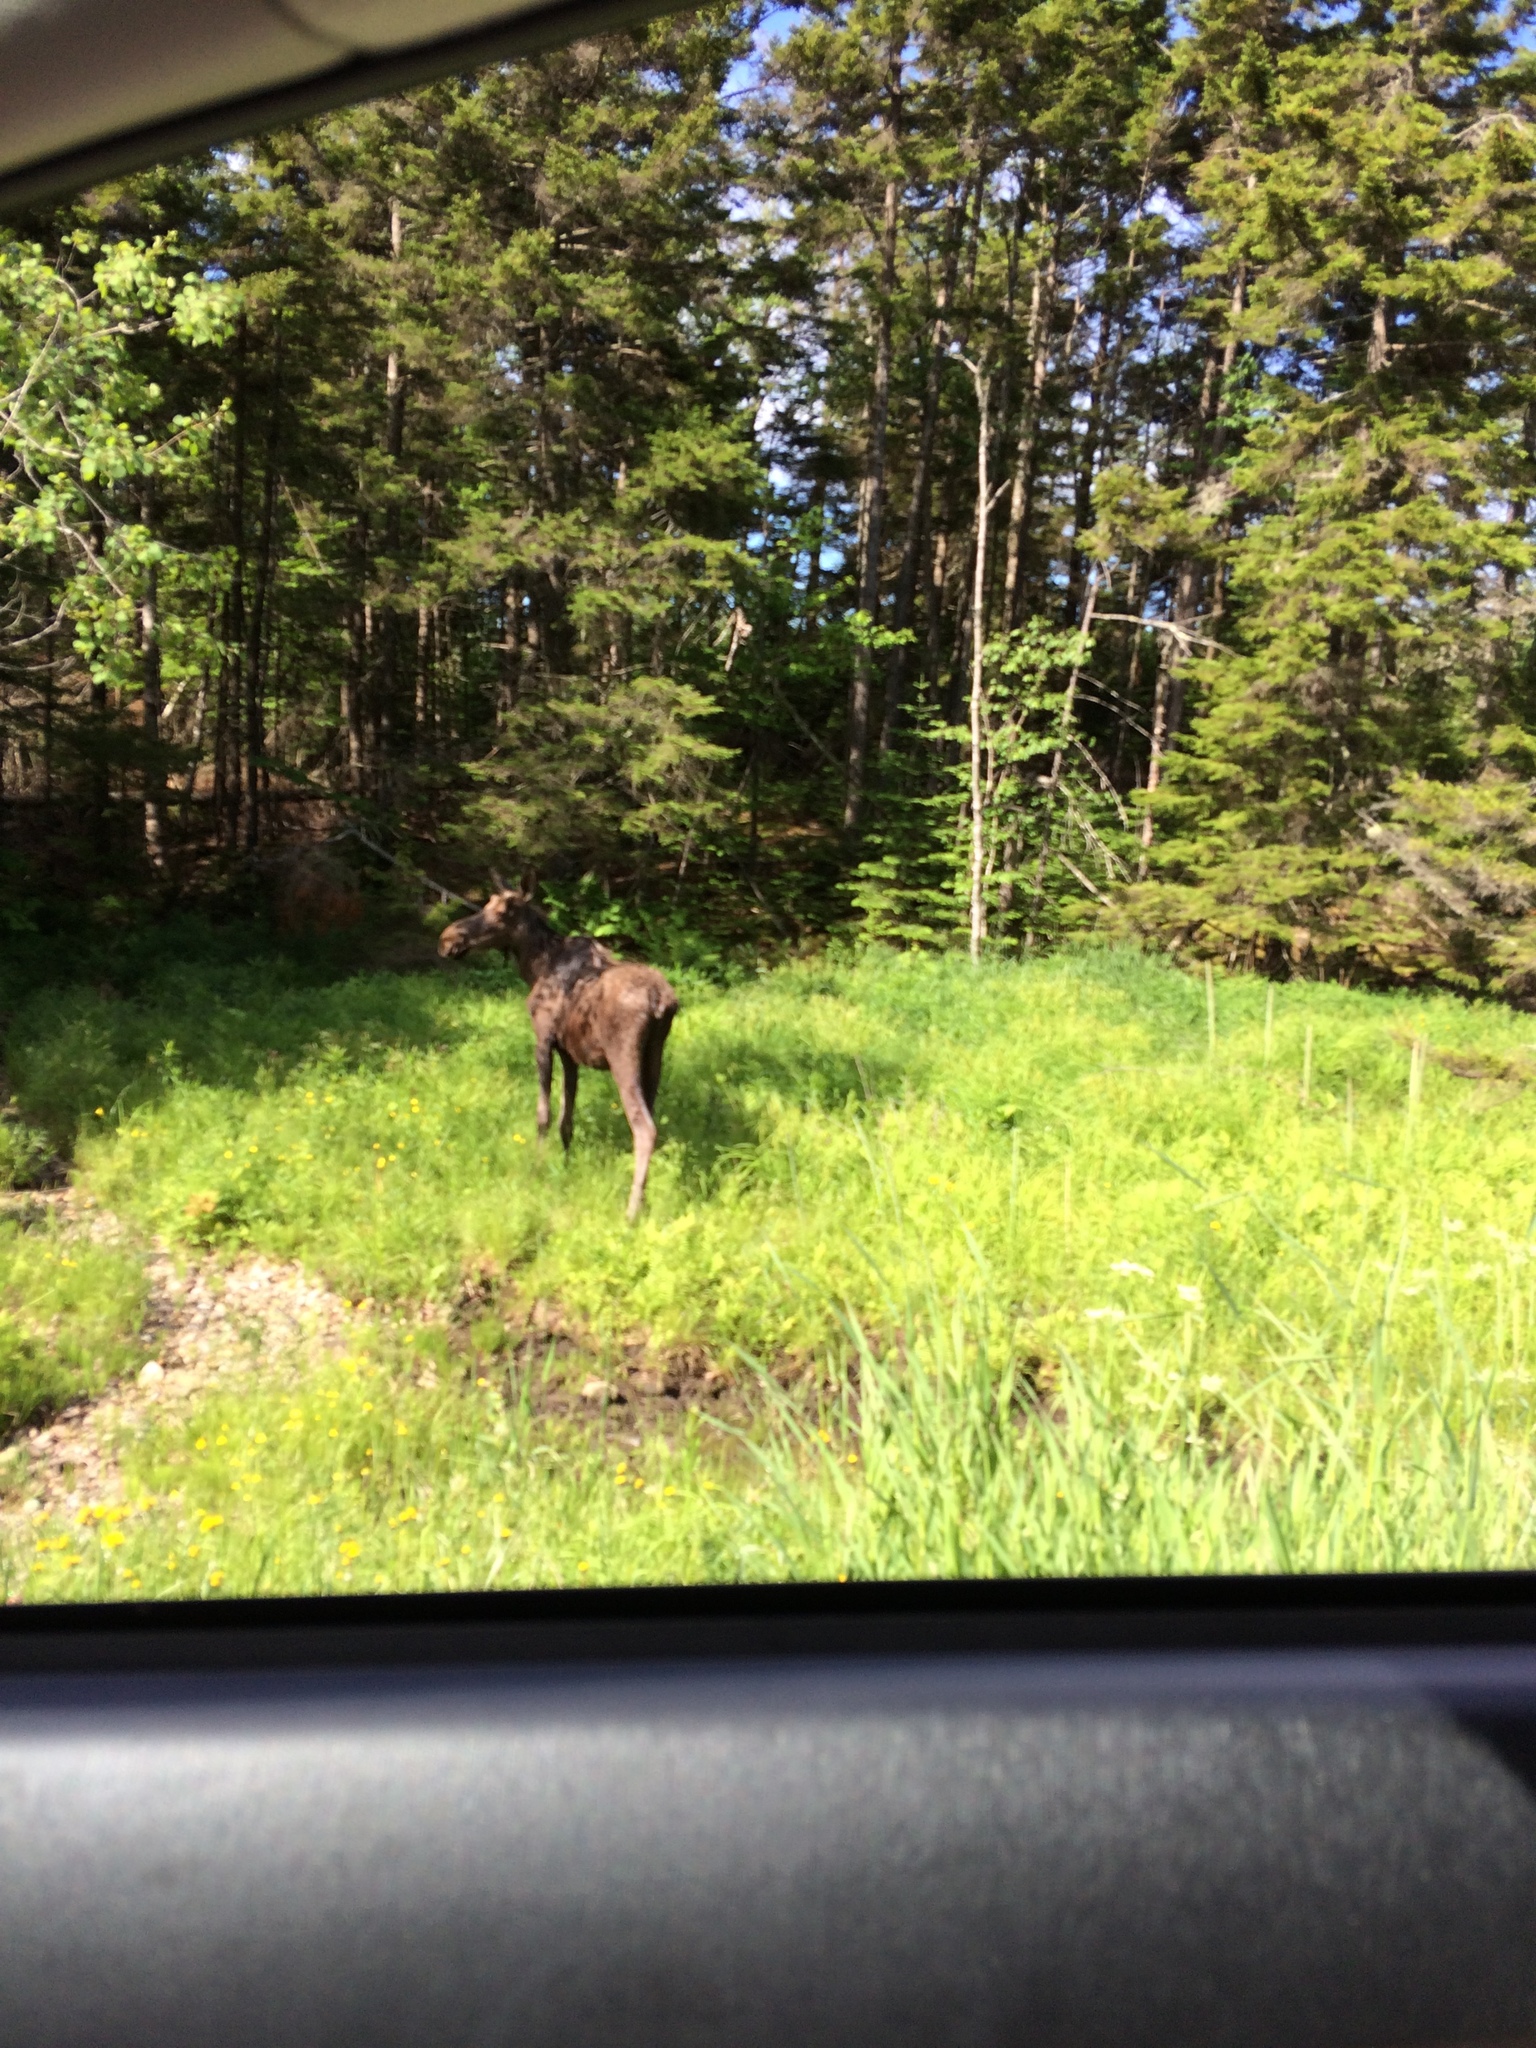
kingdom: Animalia
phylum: Chordata
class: Mammalia
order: Artiodactyla
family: Cervidae
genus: Alces
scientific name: Alces alces
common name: Moose
